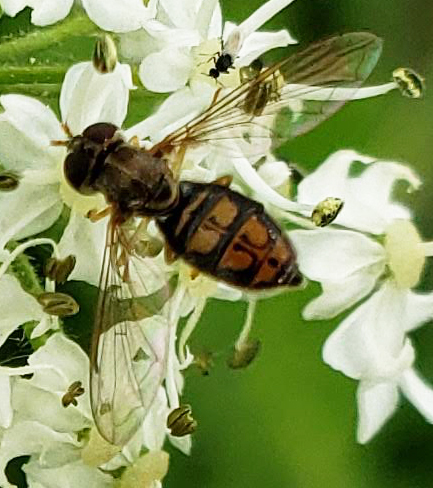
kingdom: Animalia
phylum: Arthropoda
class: Insecta
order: Diptera
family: Syrphidae
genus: Toxomerus
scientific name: Toxomerus marginatus
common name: Syrphid fly
